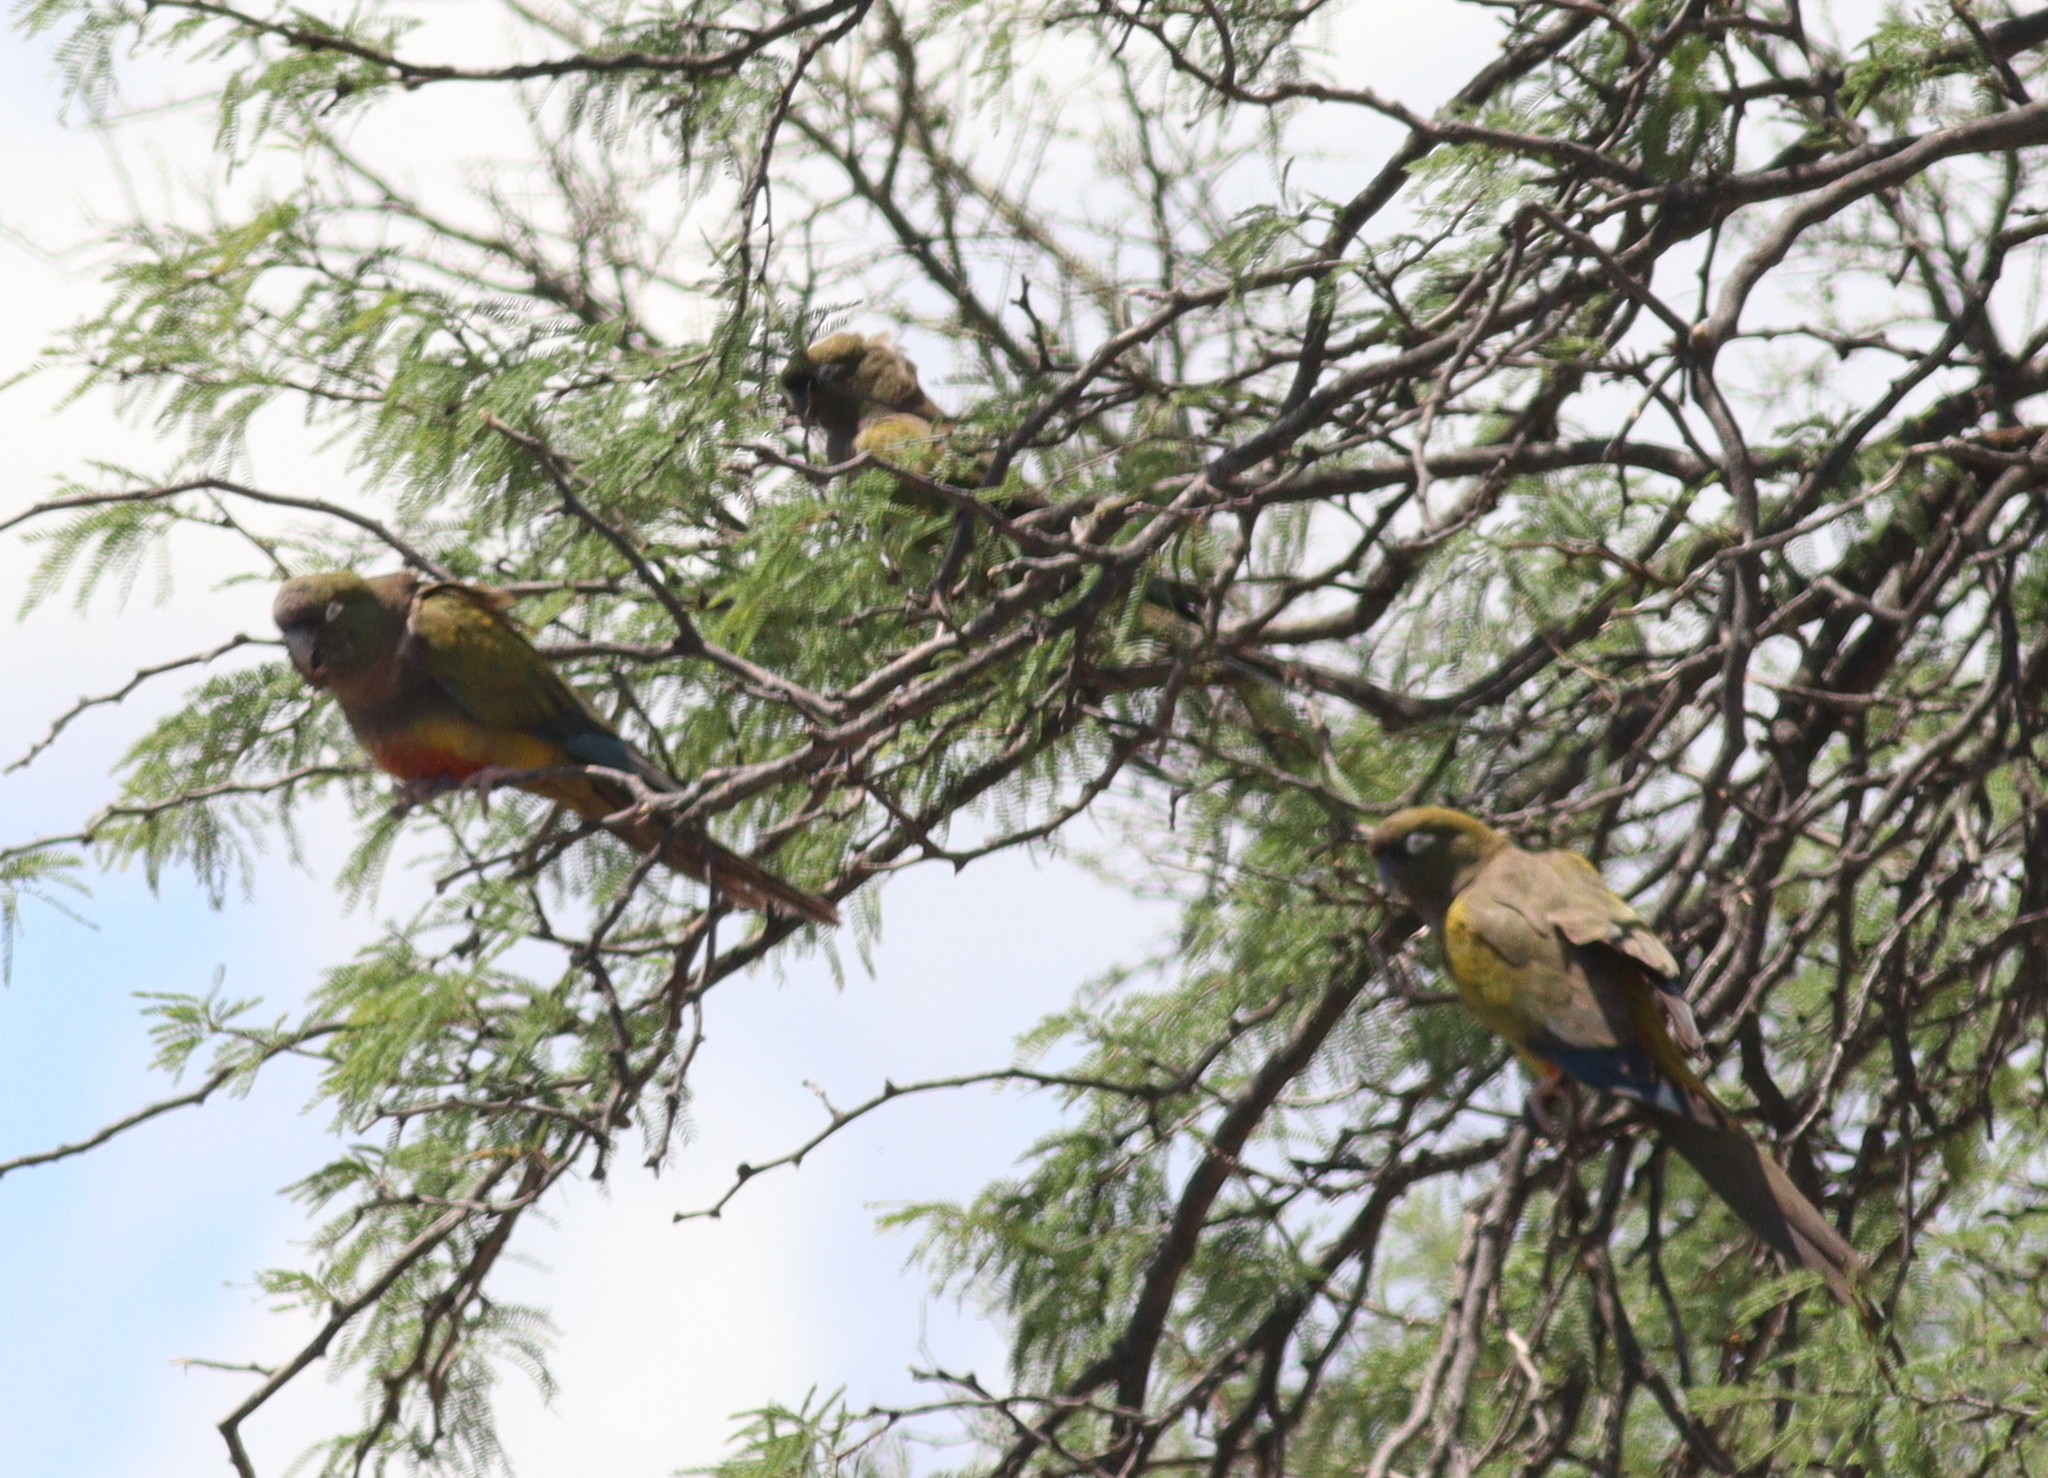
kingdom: Animalia
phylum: Chordata
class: Aves
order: Psittaciformes
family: Psittacidae
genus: Cyanoliseus
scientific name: Cyanoliseus patagonus
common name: Burrowing parrot
